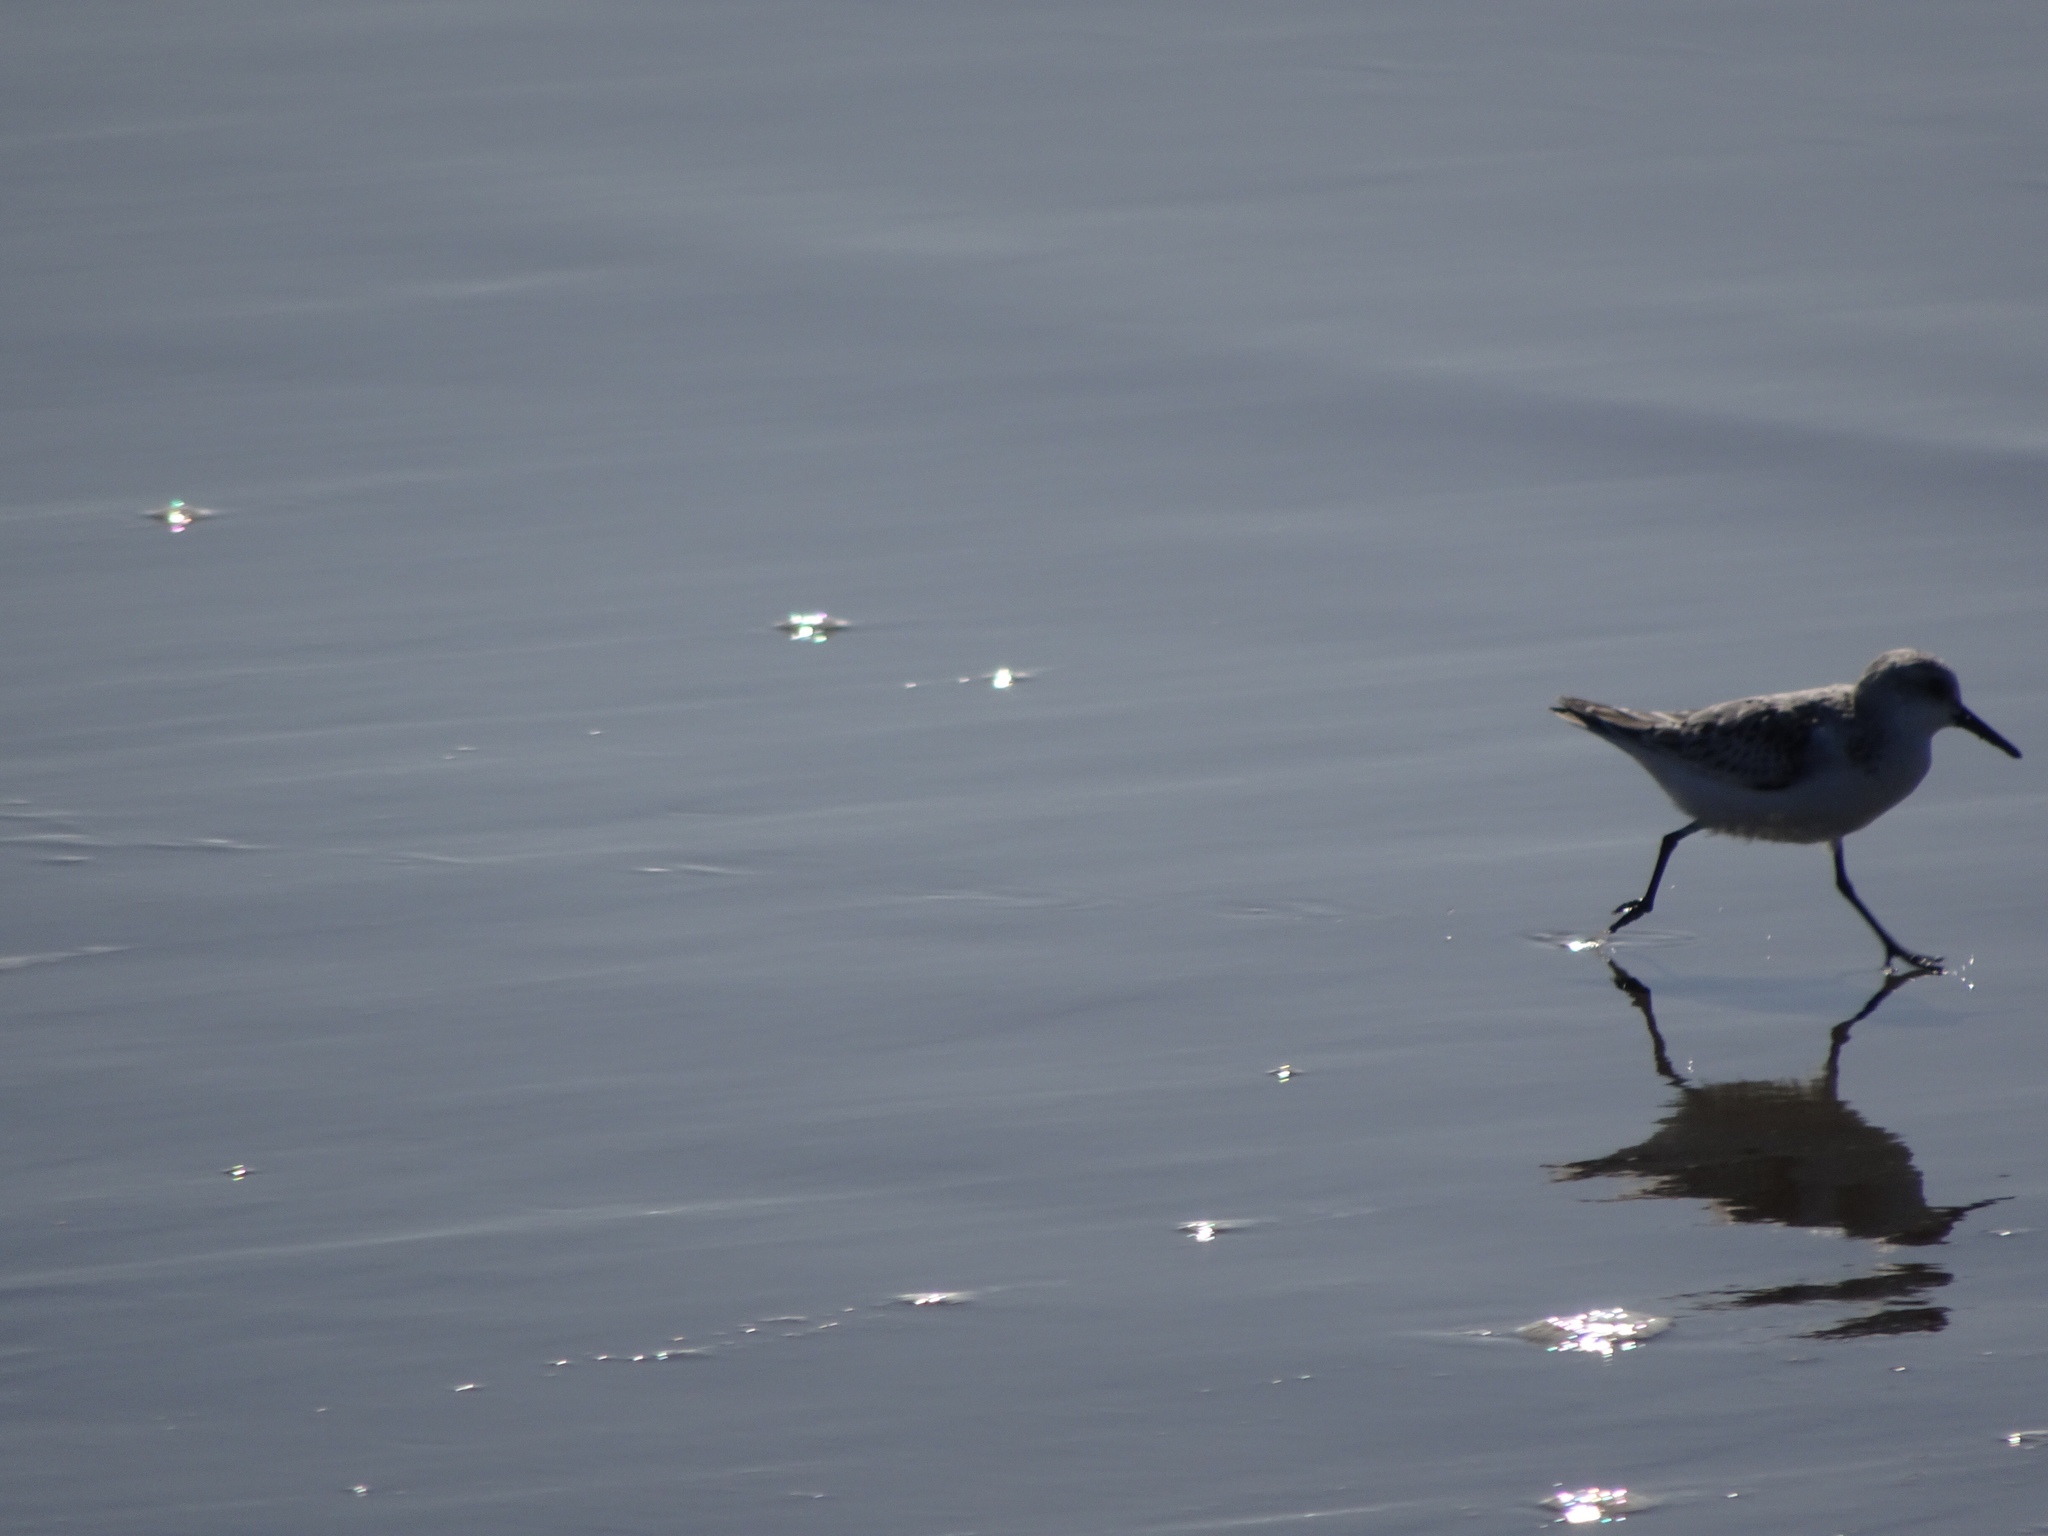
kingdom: Animalia
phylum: Chordata
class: Aves
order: Charadriiformes
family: Scolopacidae
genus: Calidris
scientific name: Calidris alba
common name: Sanderling
